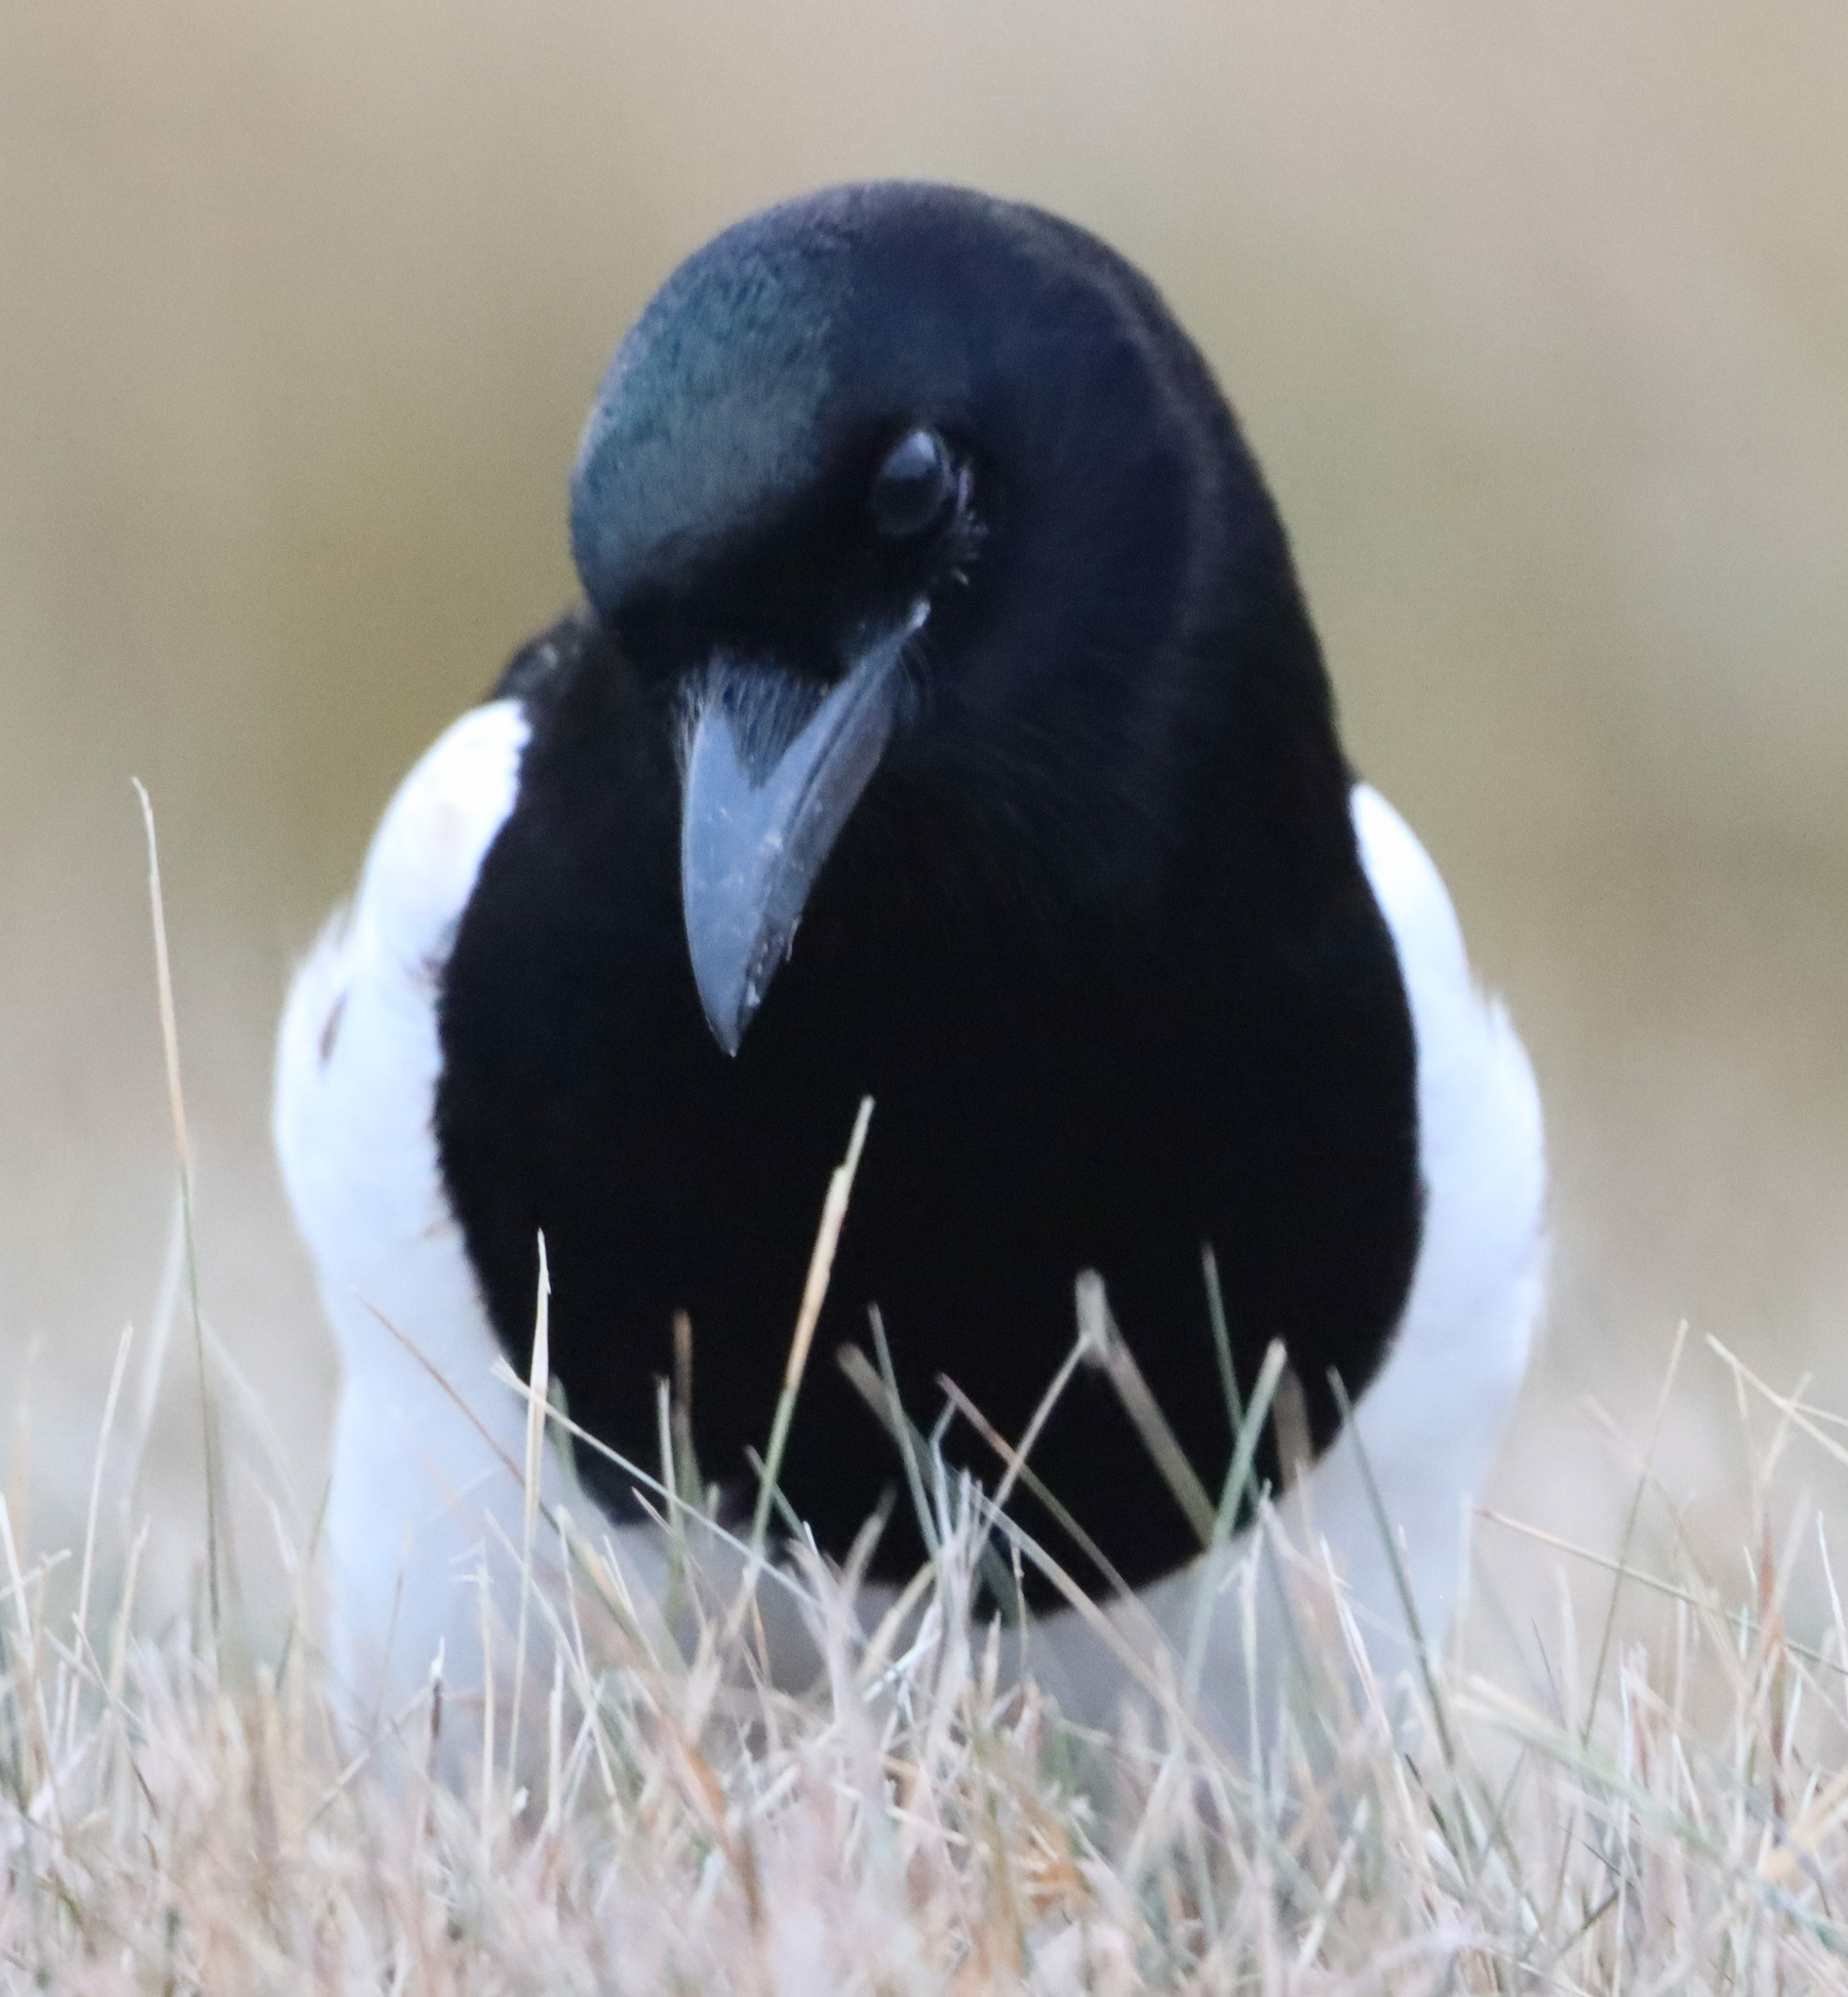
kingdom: Animalia
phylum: Chordata
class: Aves
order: Passeriformes
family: Corvidae
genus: Pica
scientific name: Pica hudsonia
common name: Black-billed magpie
